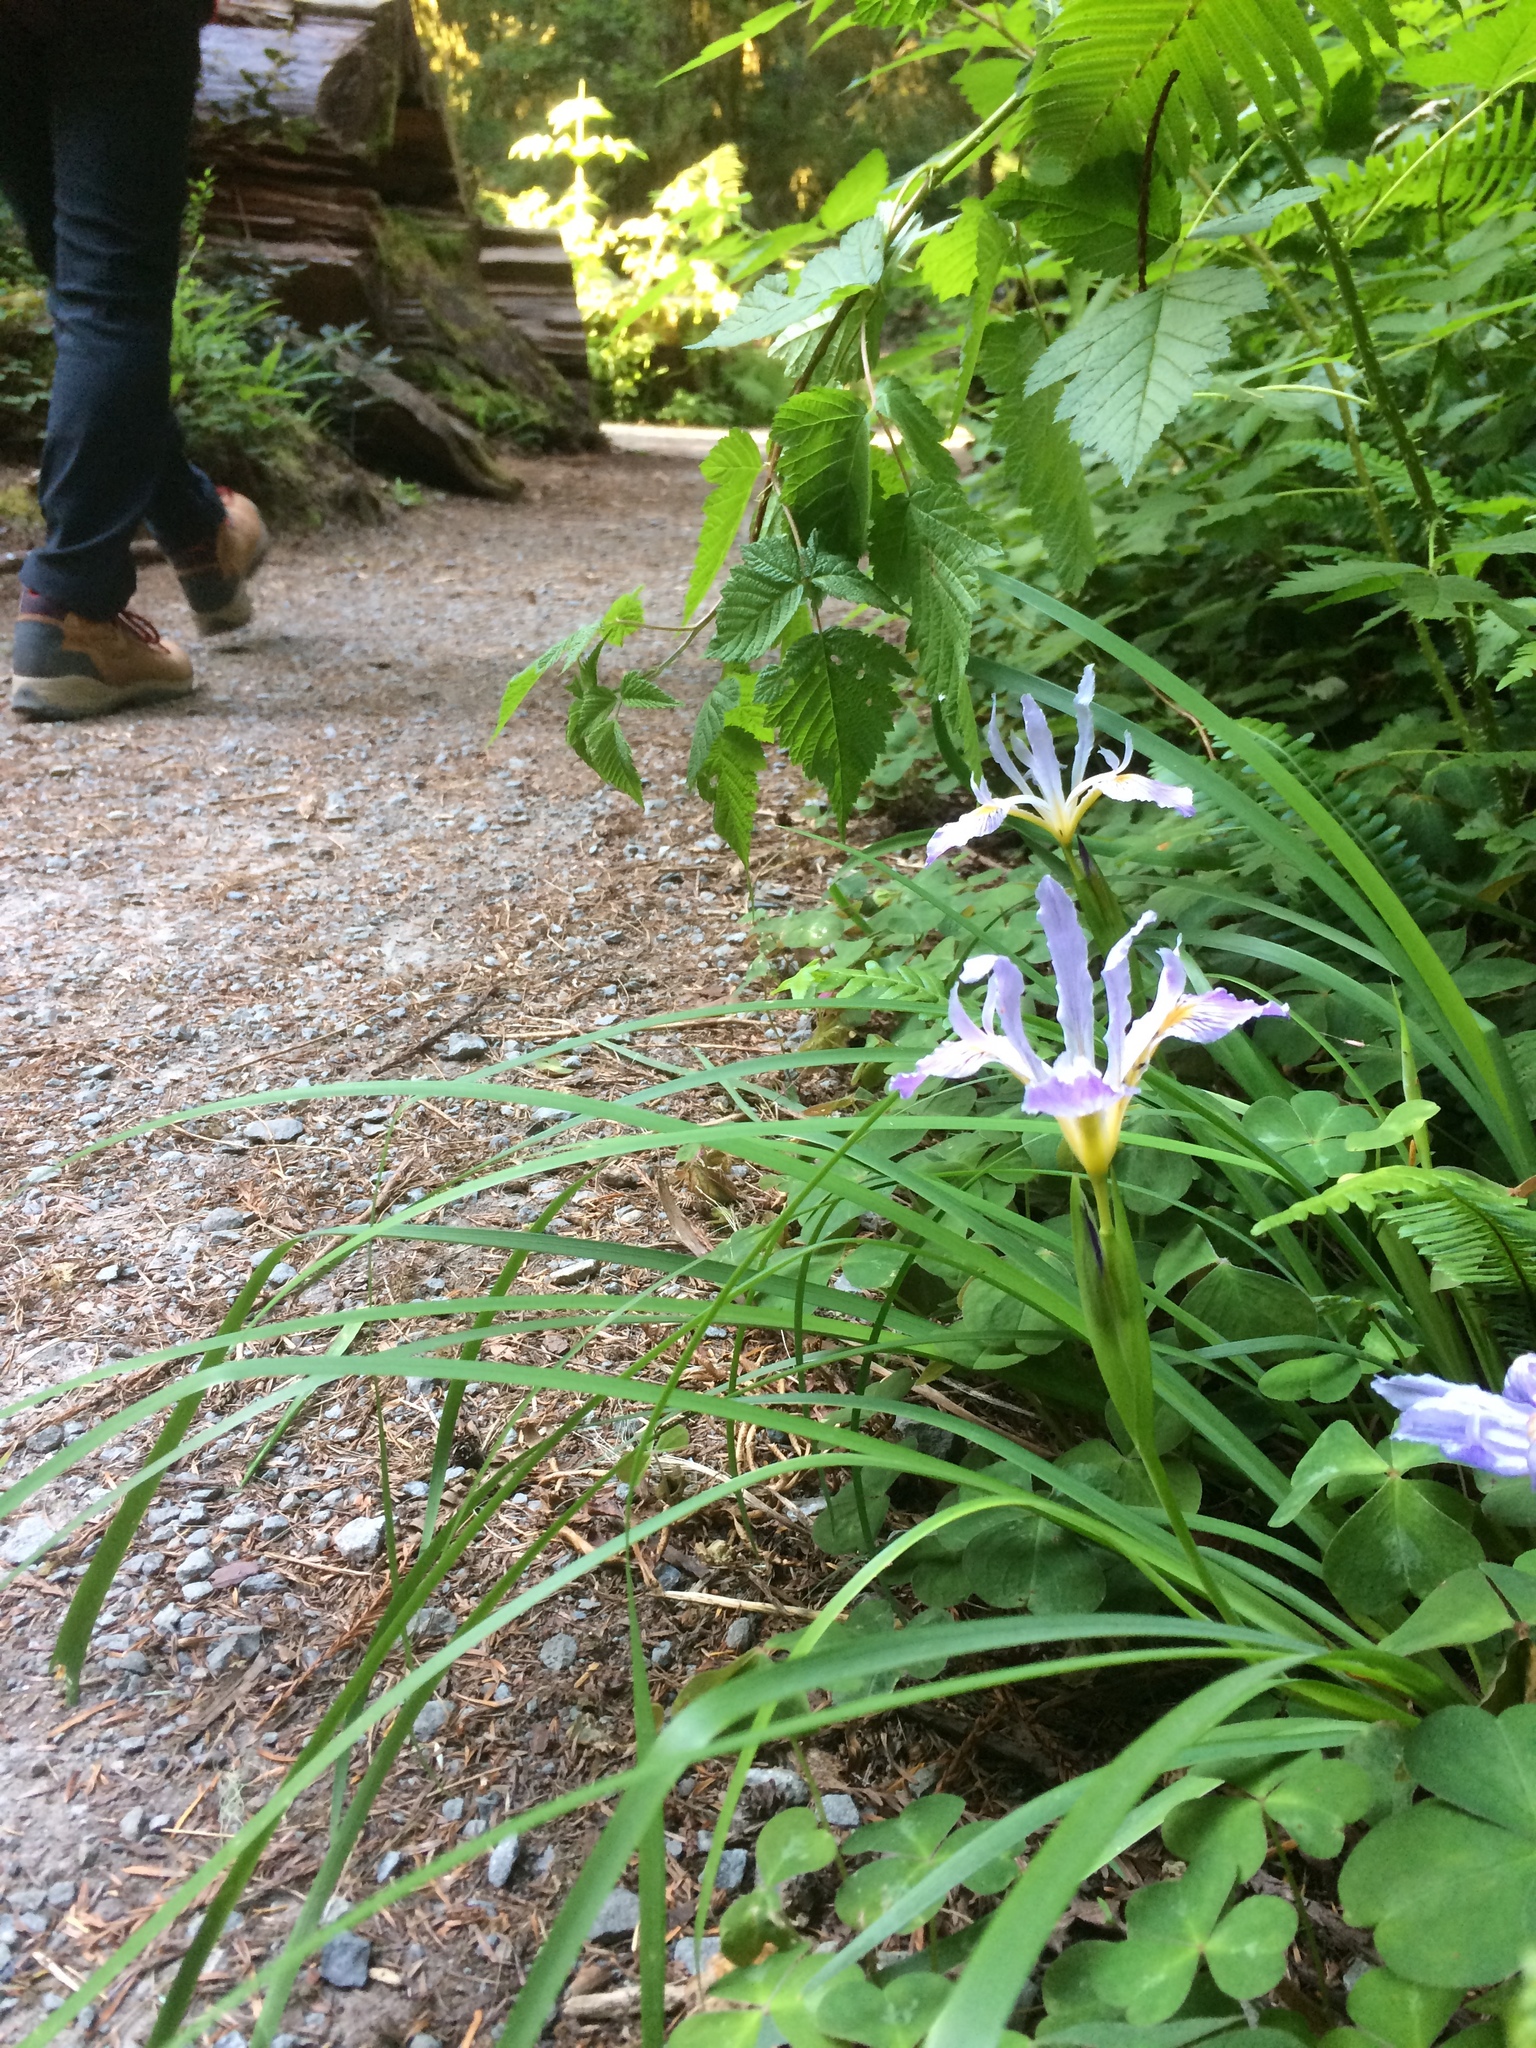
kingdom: Plantae
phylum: Tracheophyta
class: Liliopsida
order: Asparagales
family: Iridaceae
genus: Iris
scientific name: Iris douglasiana
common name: Marin iris
